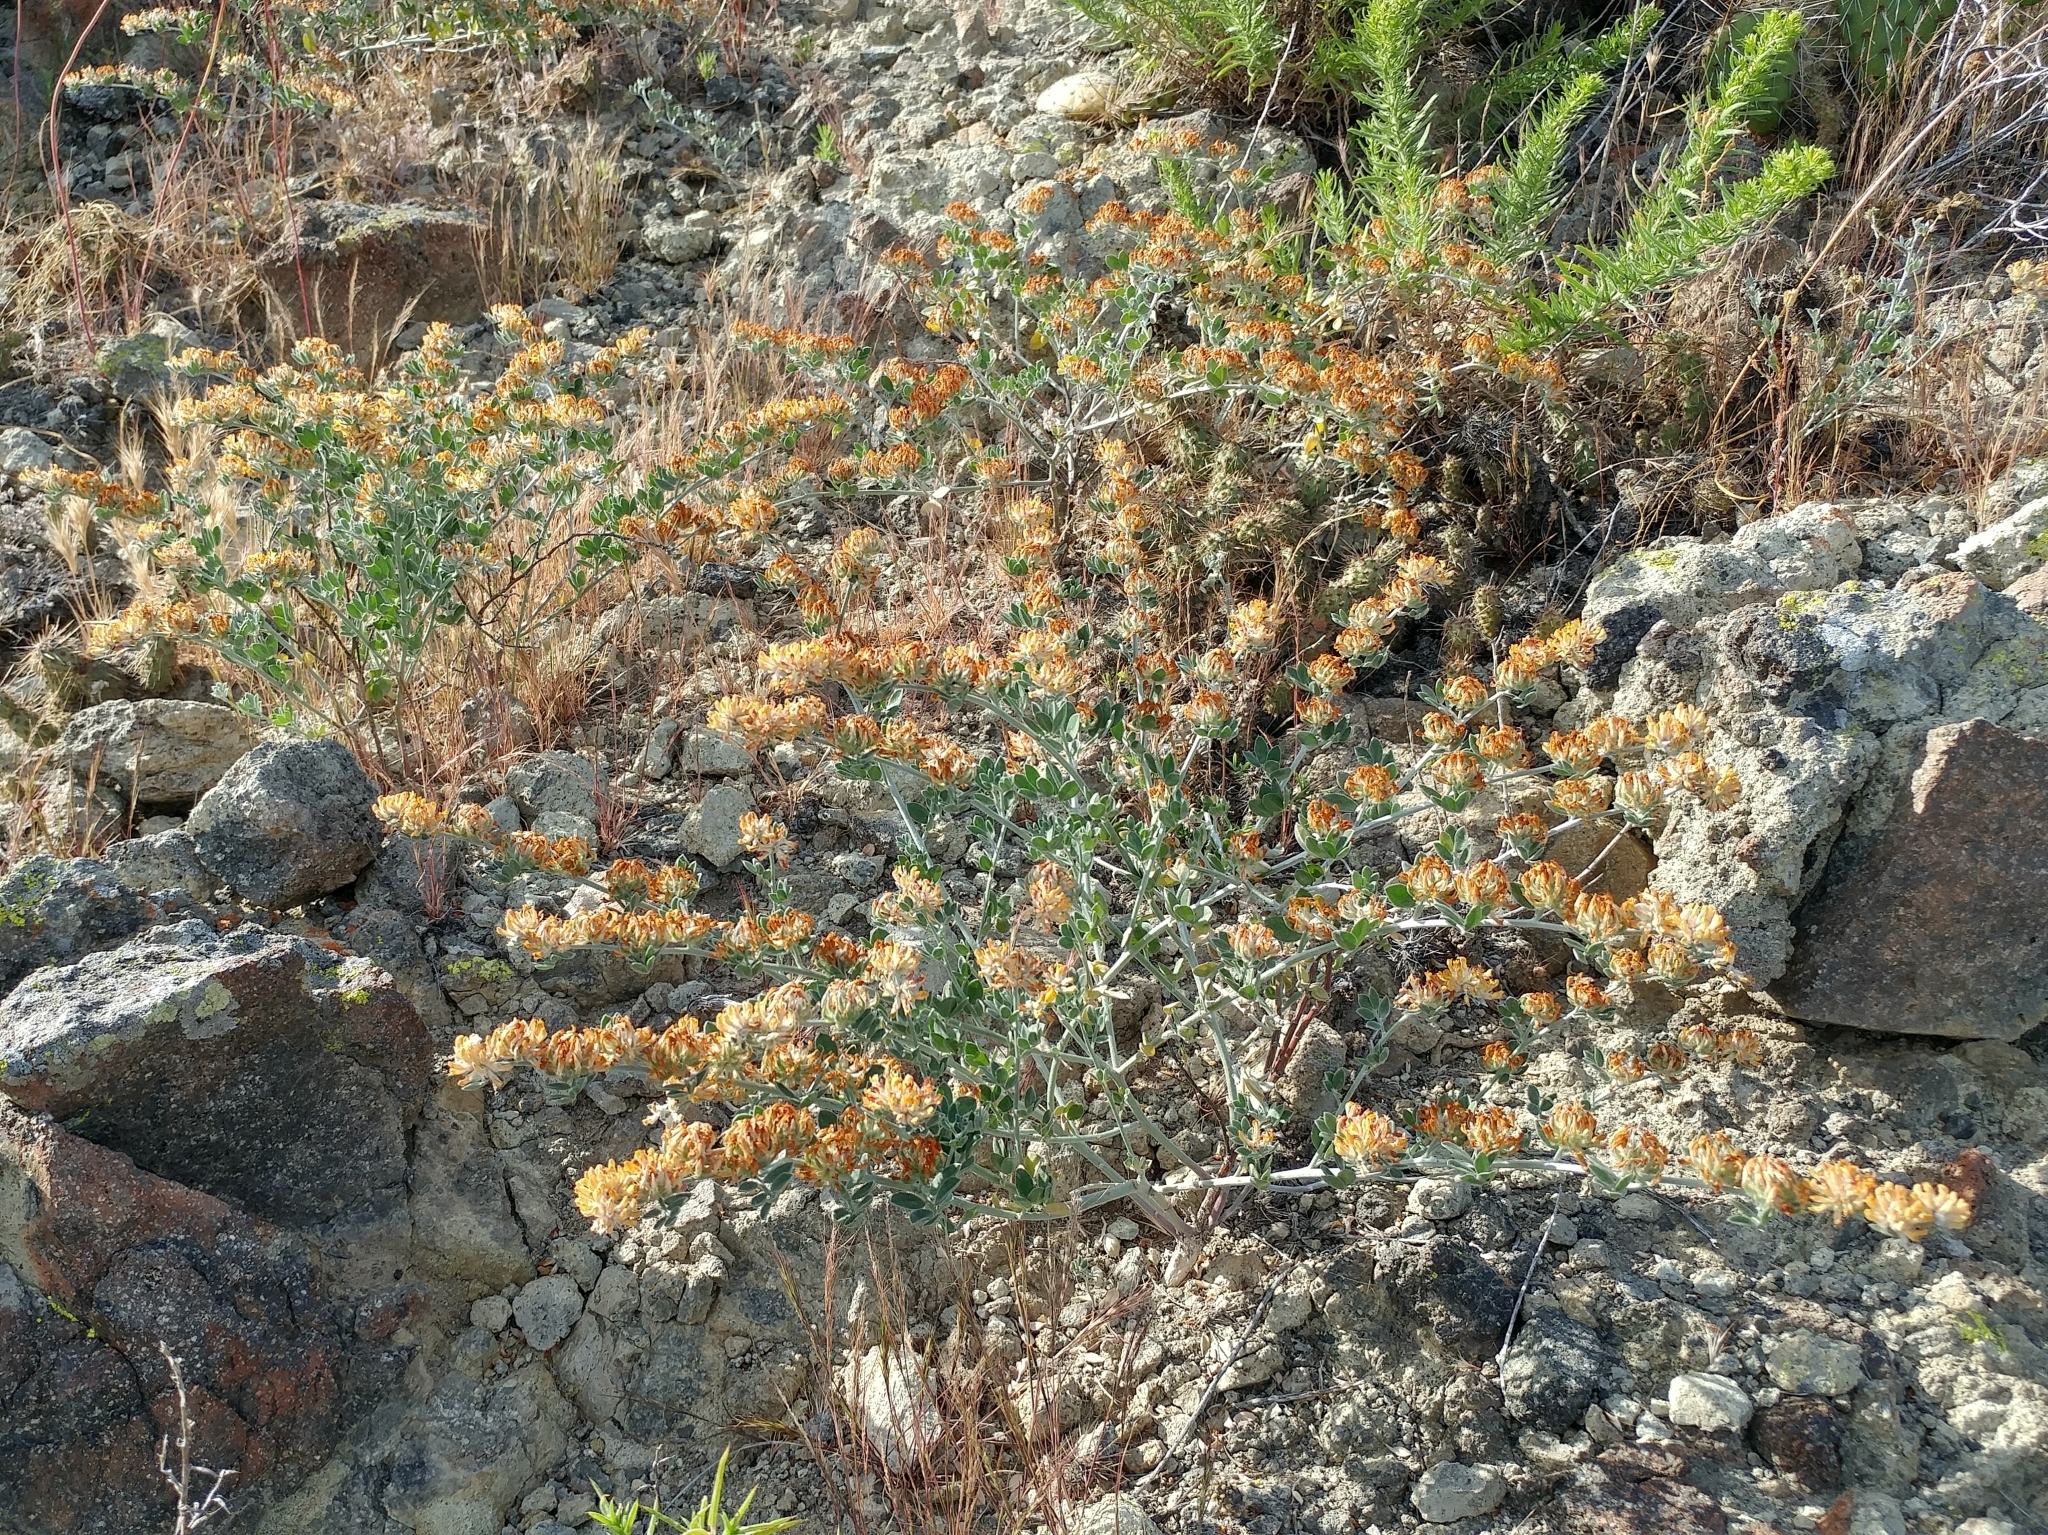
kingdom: Plantae
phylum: Tracheophyta
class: Magnoliopsida
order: Fabales
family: Fabaceae
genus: Acmispon
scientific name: Acmispon argophyllus
